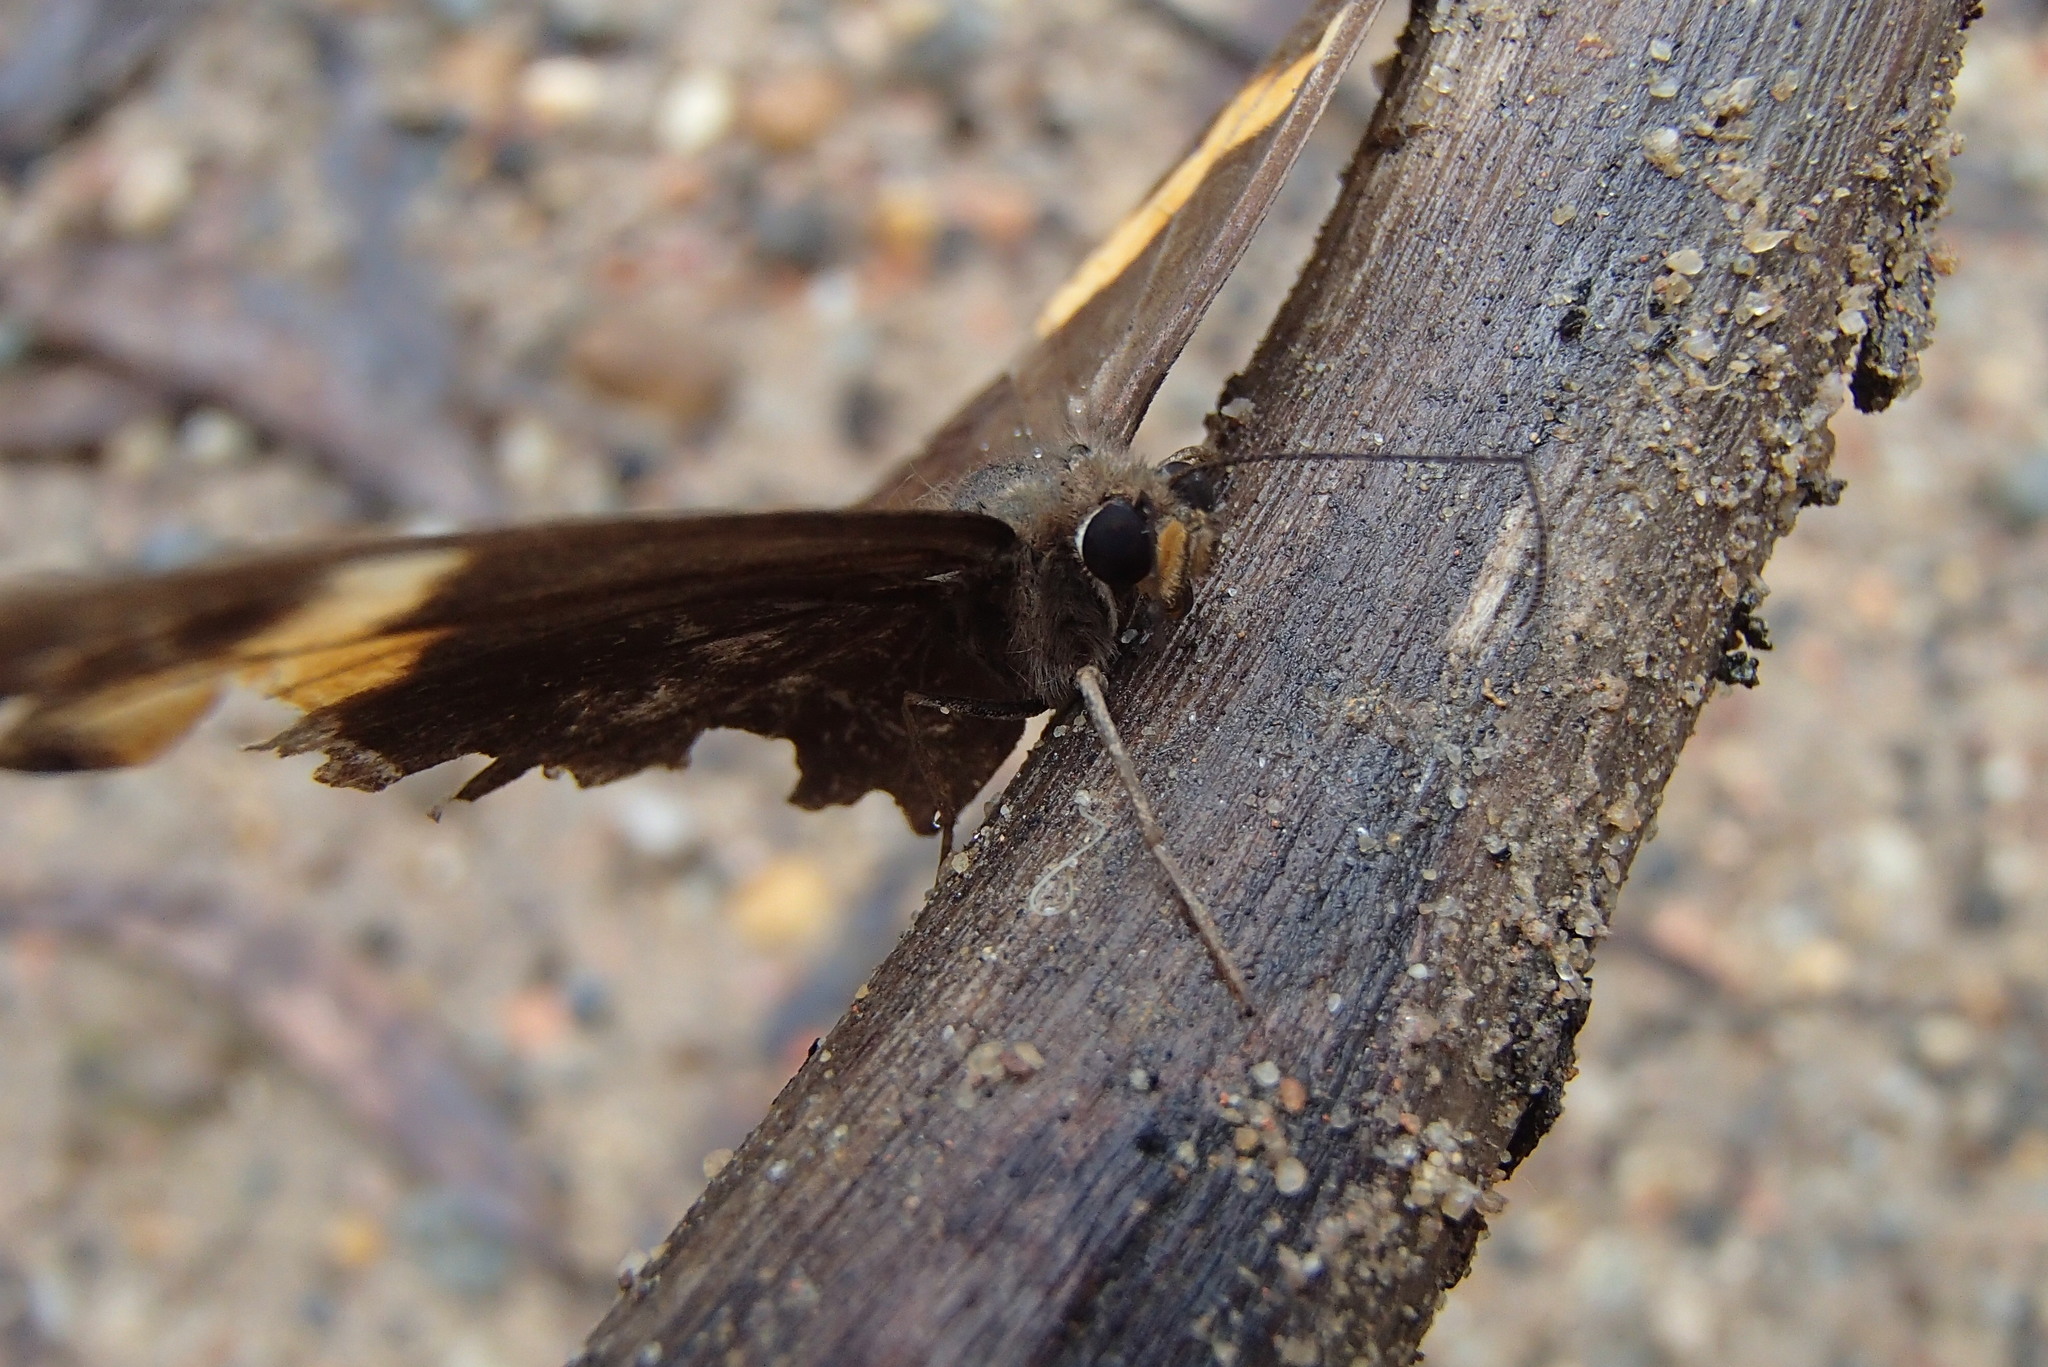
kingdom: Animalia
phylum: Arthropoda
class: Insecta
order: Lepidoptera
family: Nymphalidae
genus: Tisiphone
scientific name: Tisiphone abeona
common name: Swordgrass brown
